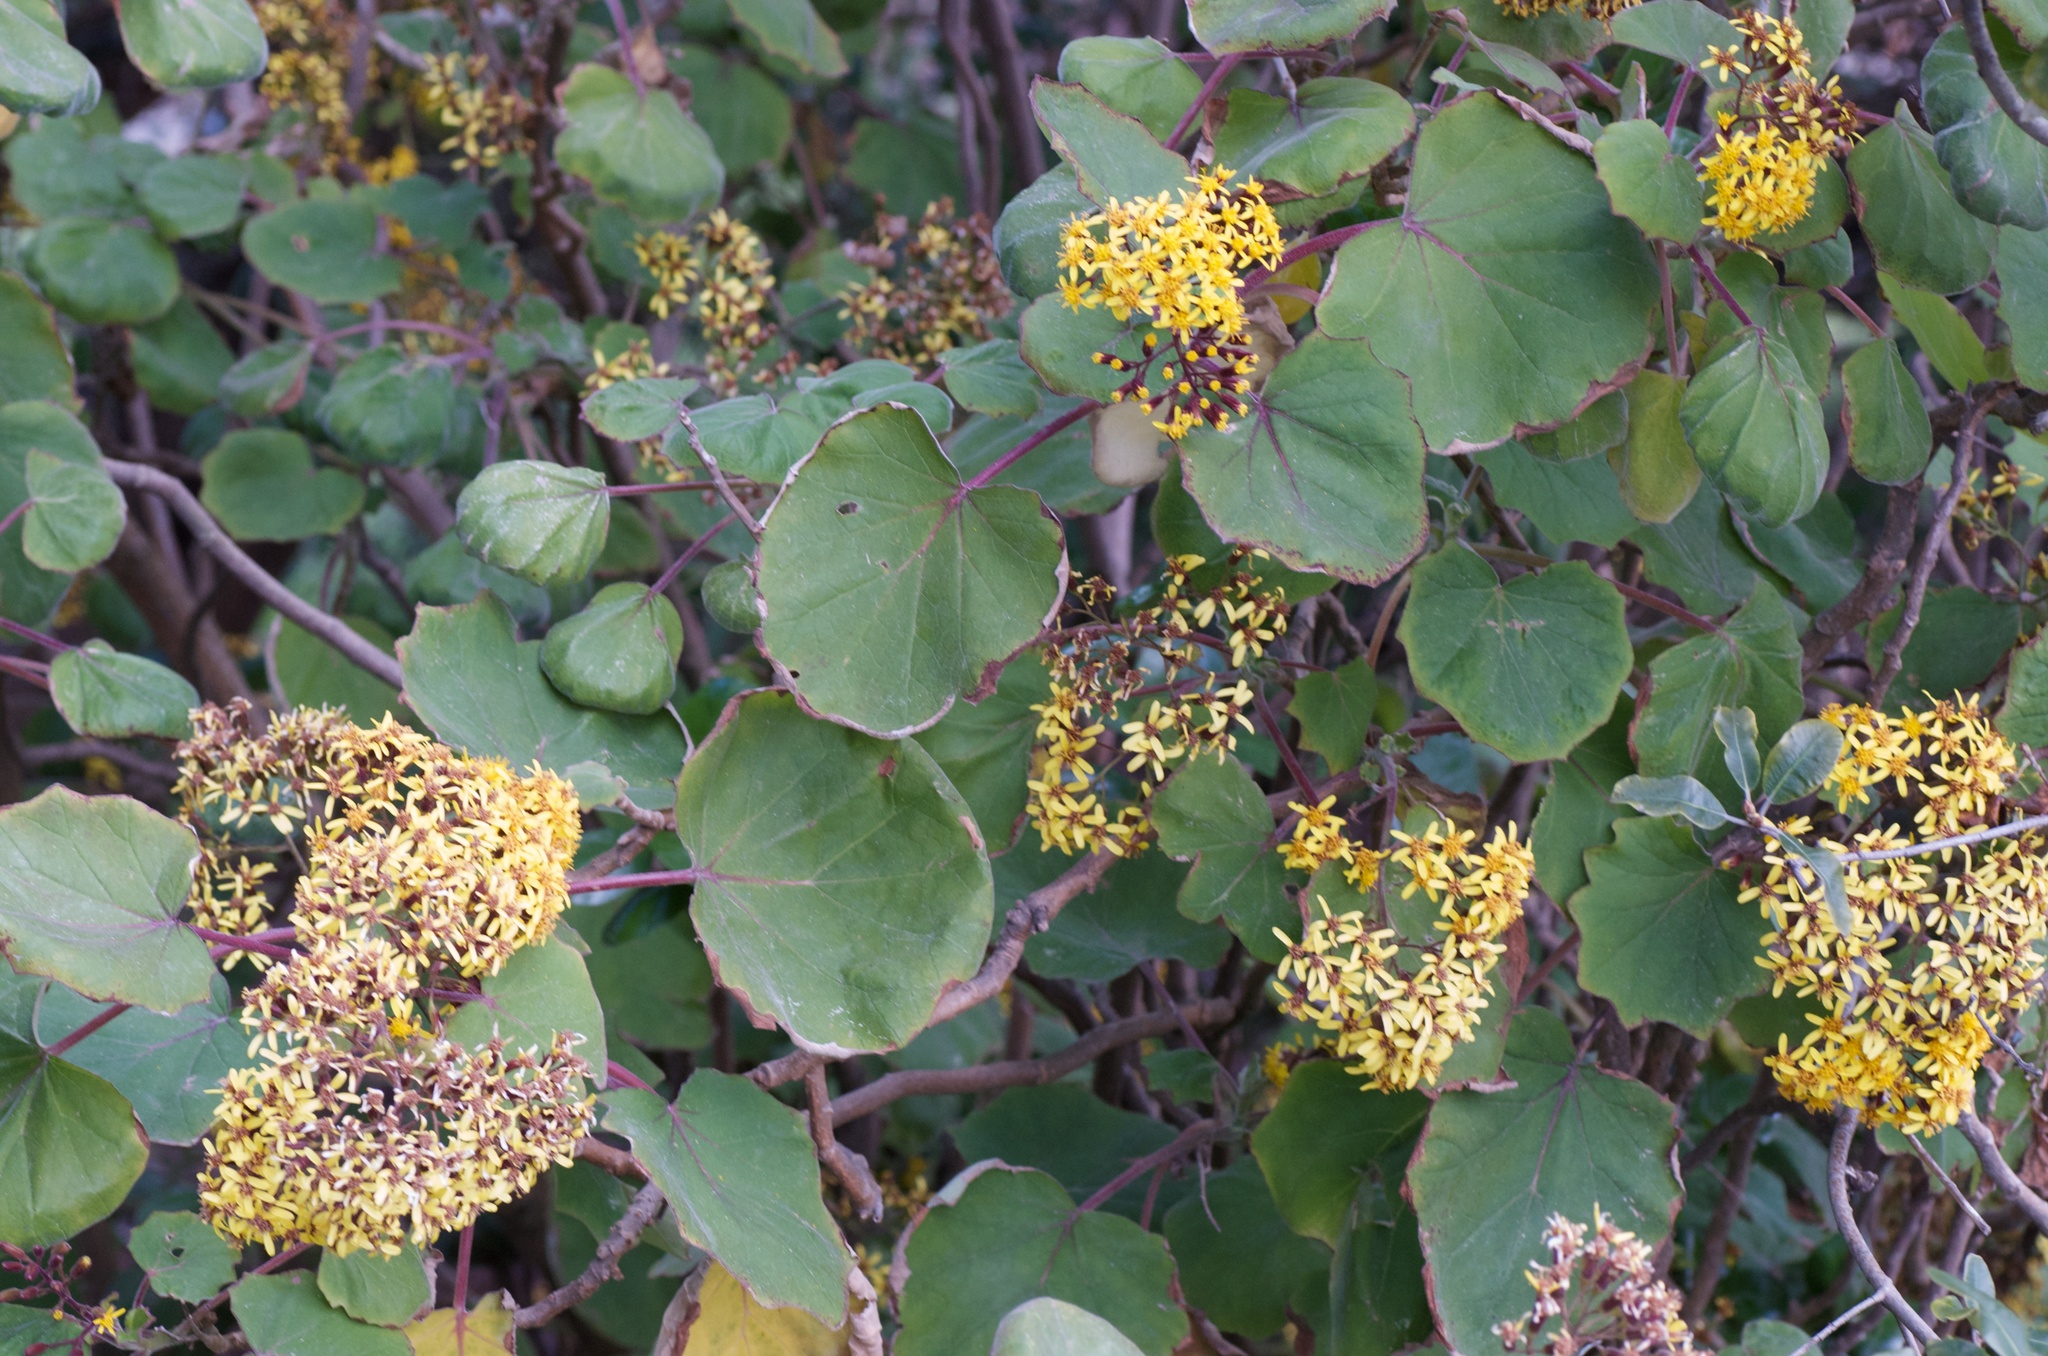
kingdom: Plantae
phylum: Tracheophyta
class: Magnoliopsida
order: Asterales
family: Asteraceae
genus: Roldana
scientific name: Roldana petasitis
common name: California-geranium
